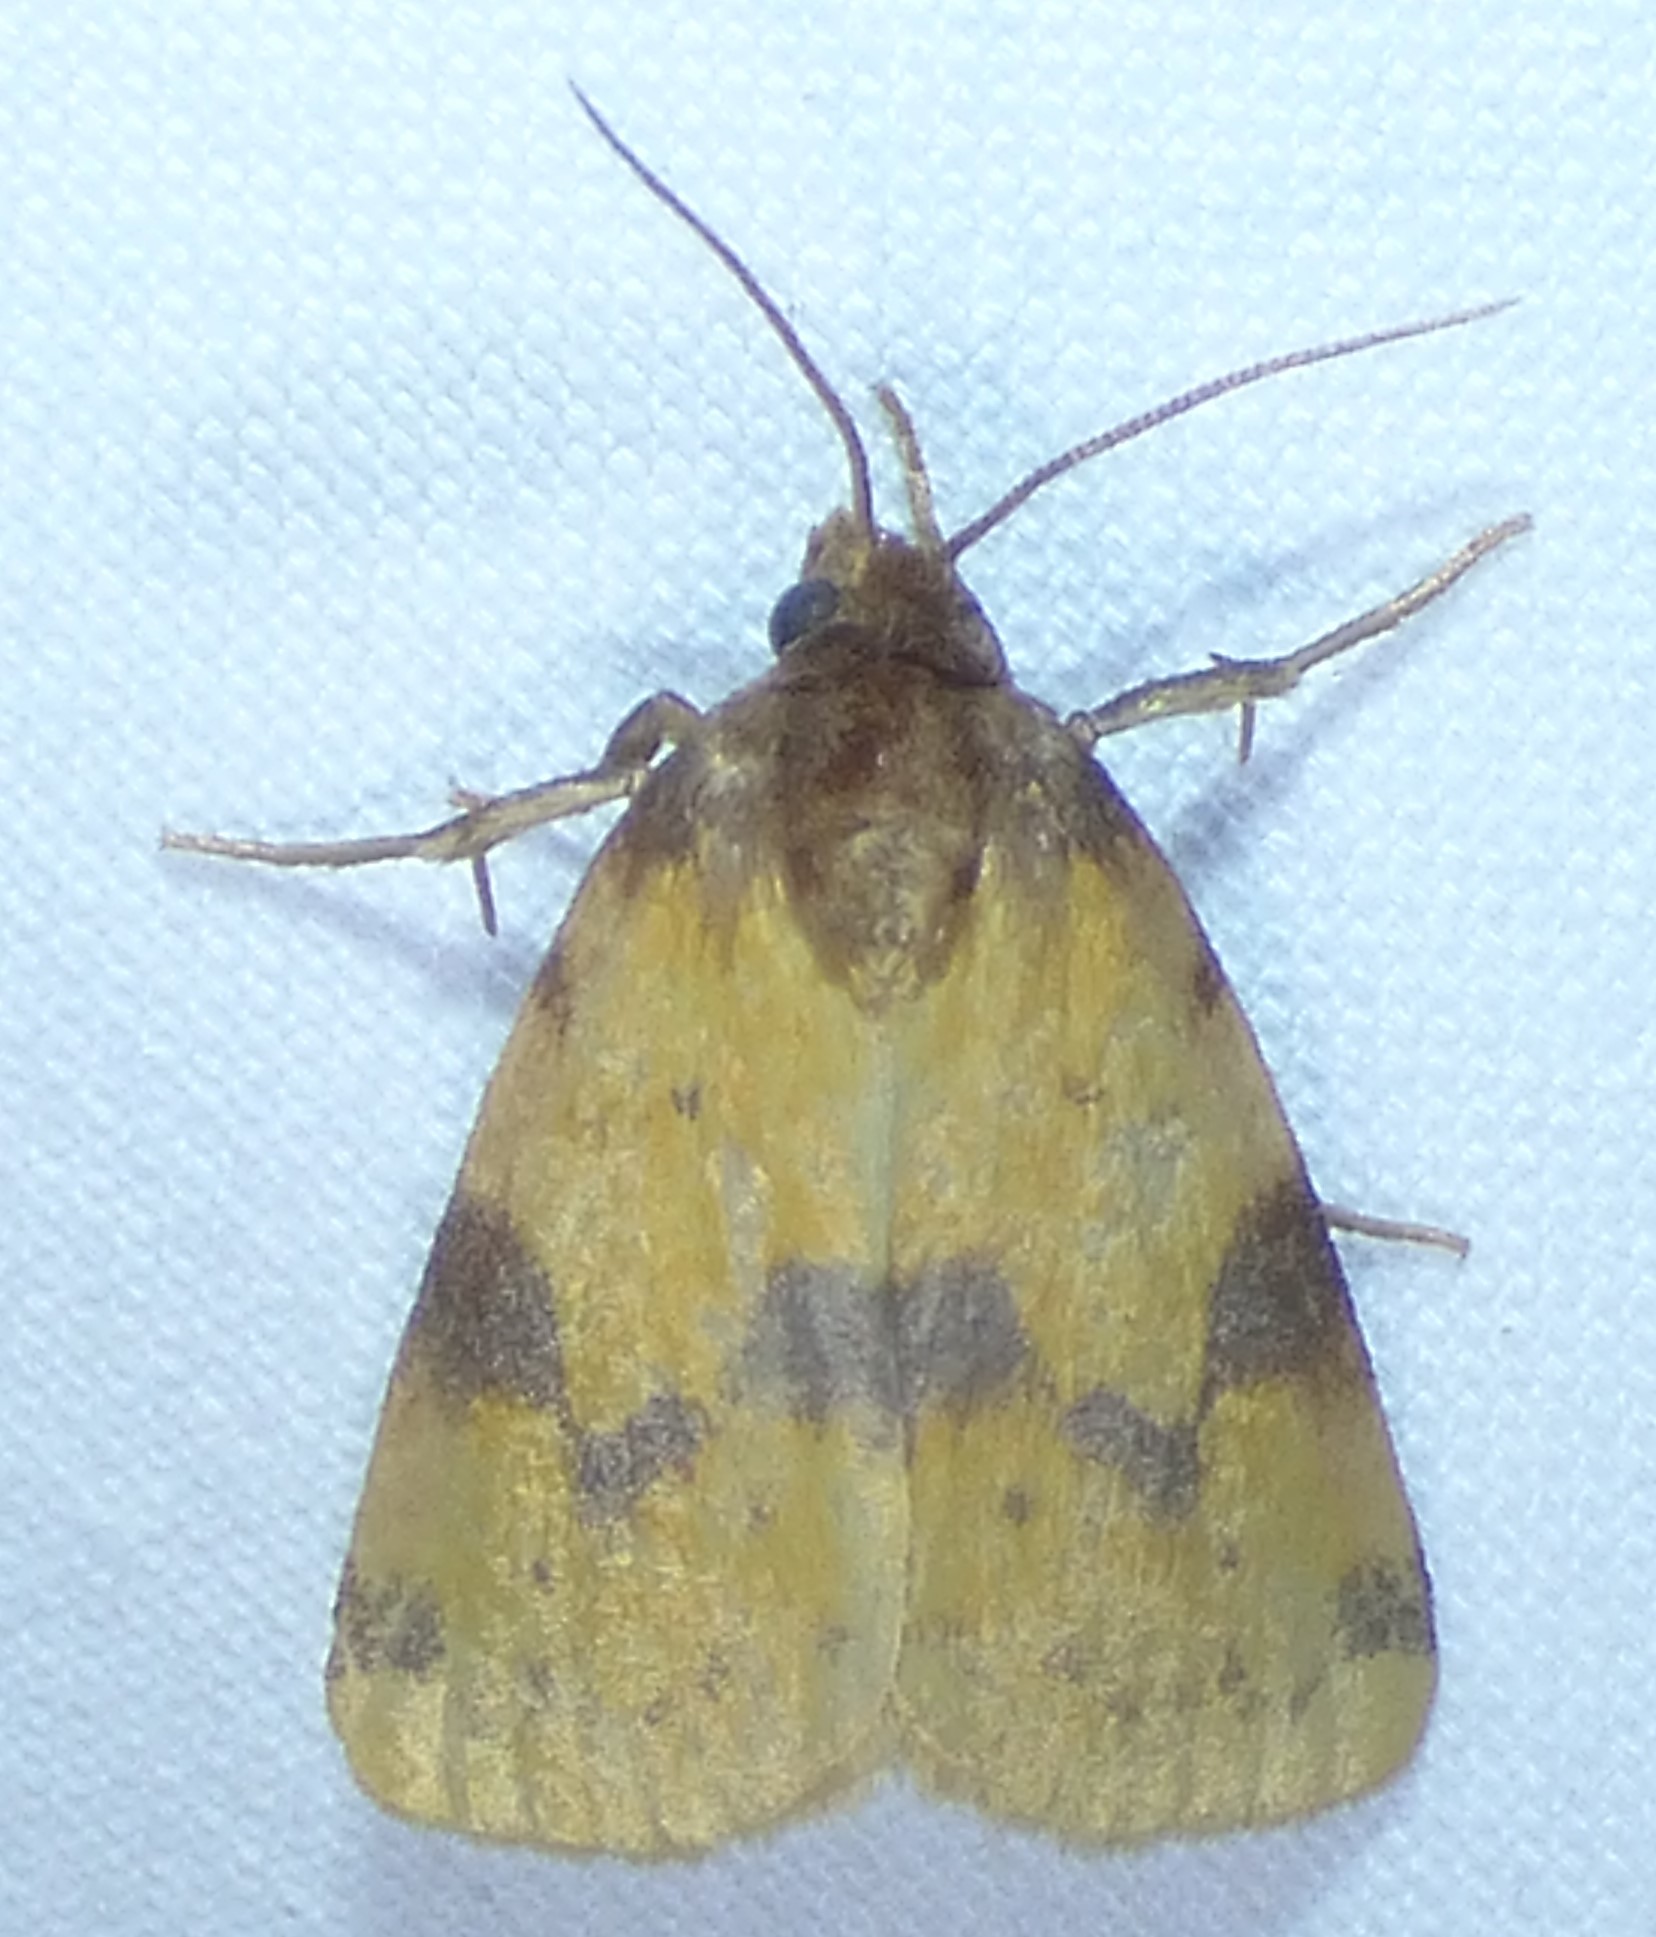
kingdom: Animalia
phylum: Arthropoda
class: Insecta
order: Lepidoptera
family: Noctuidae
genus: Azenia
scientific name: Azenia obtusa
